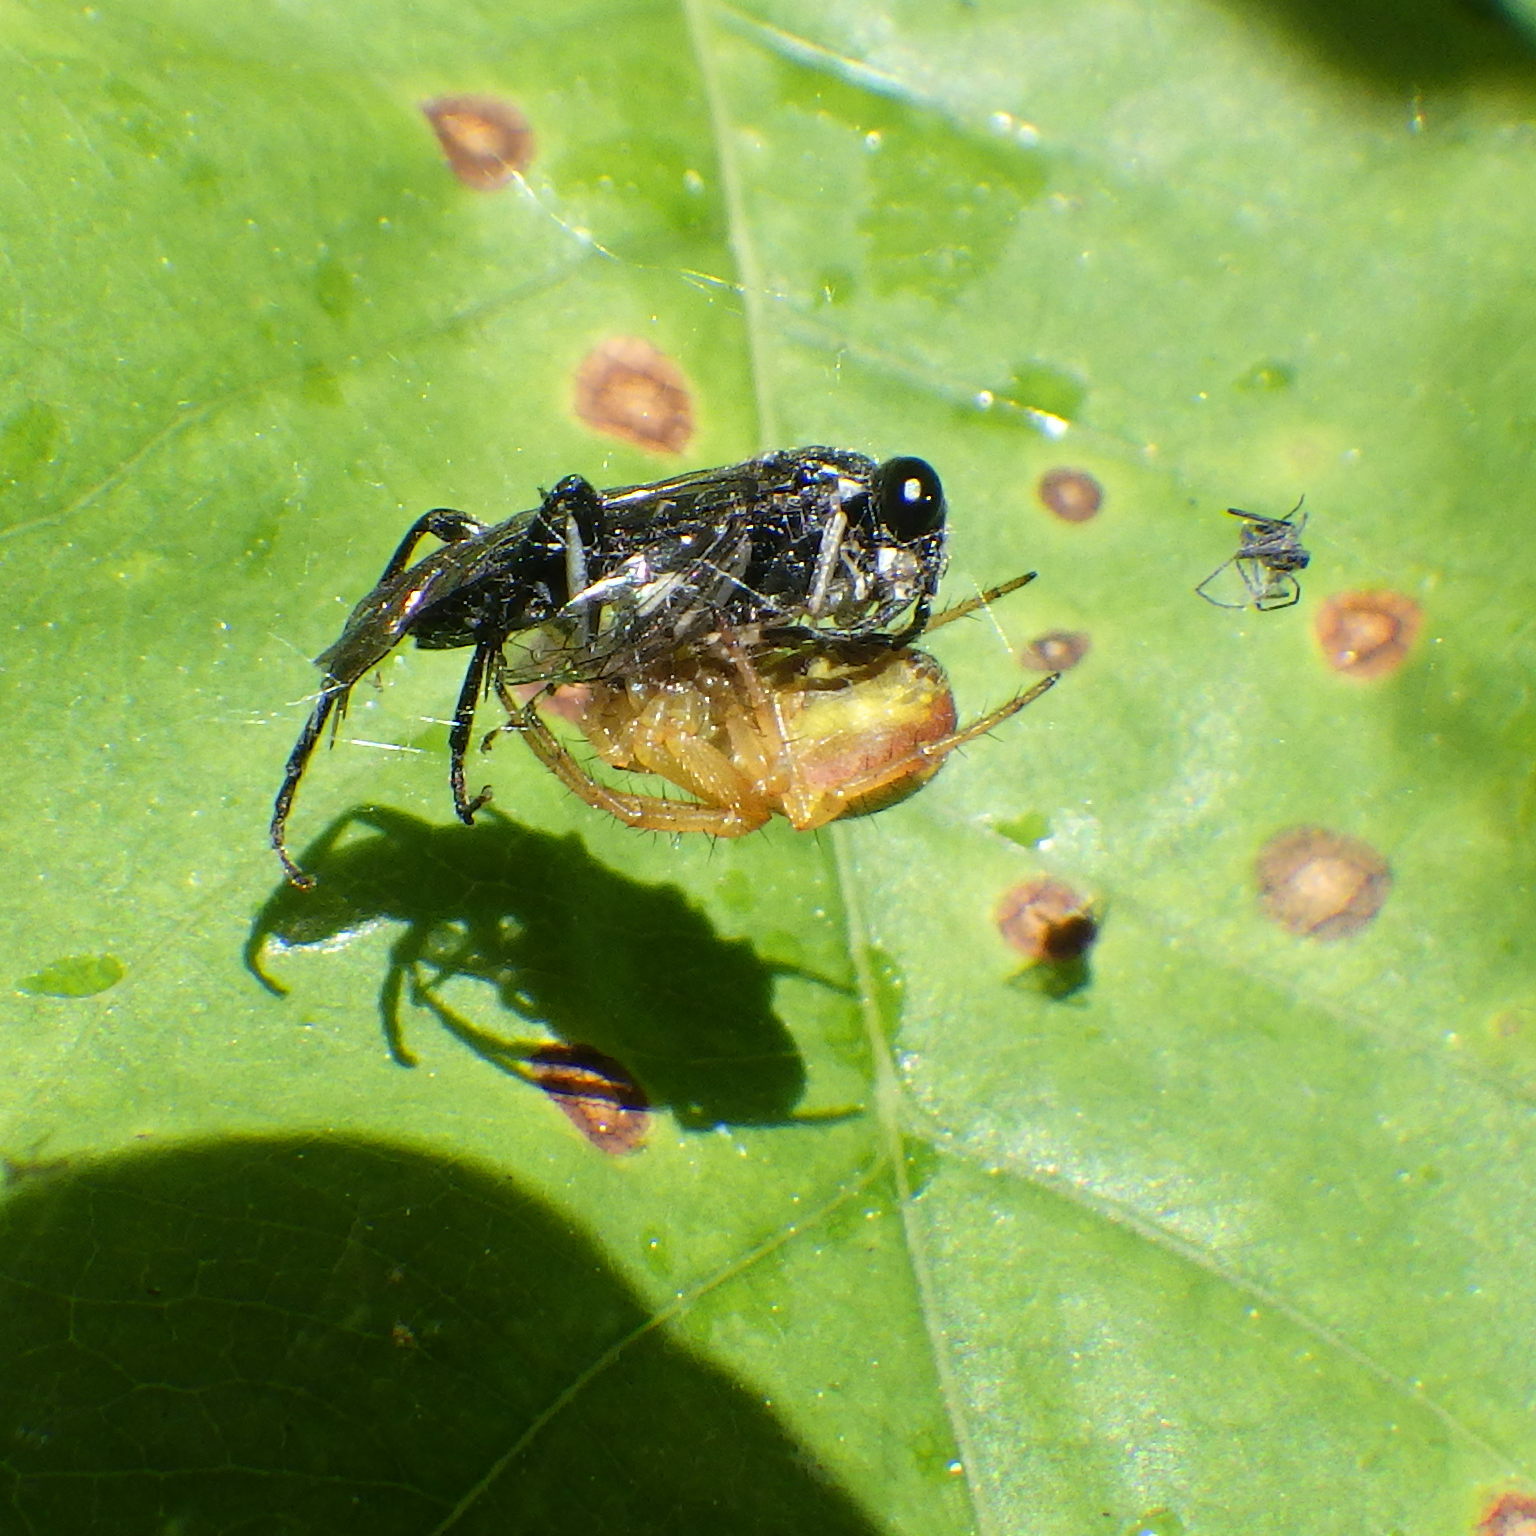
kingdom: Animalia
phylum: Arthropoda
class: Arachnida
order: Araneae
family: Araneidae
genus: Araniella
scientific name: Araniella displicata
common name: Sixspotted orb weaver
